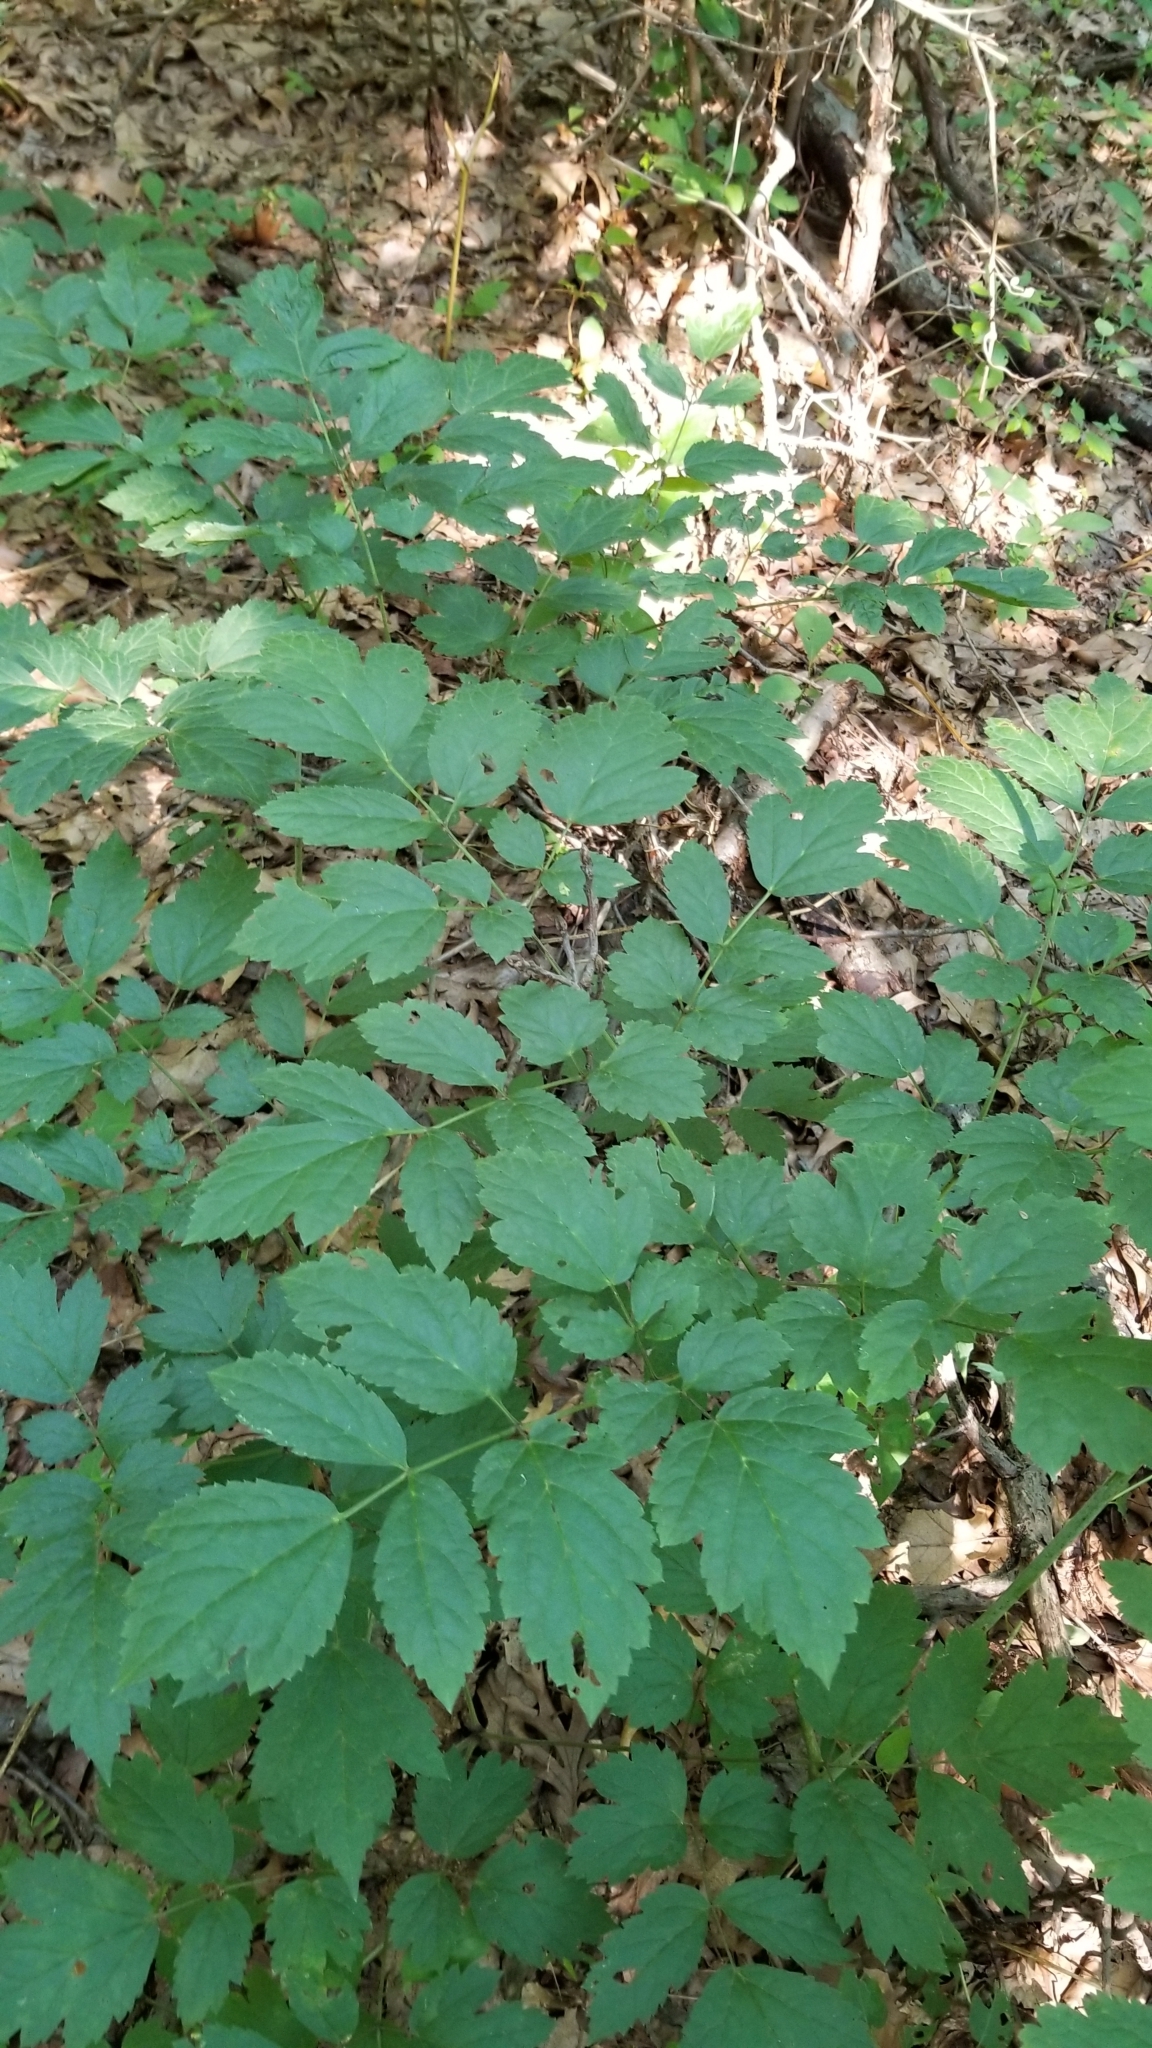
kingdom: Plantae
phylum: Tracheophyta
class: Magnoliopsida
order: Ranunculales
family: Ranunculaceae
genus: Actaea
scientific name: Actaea racemosa
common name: Black cohosh
